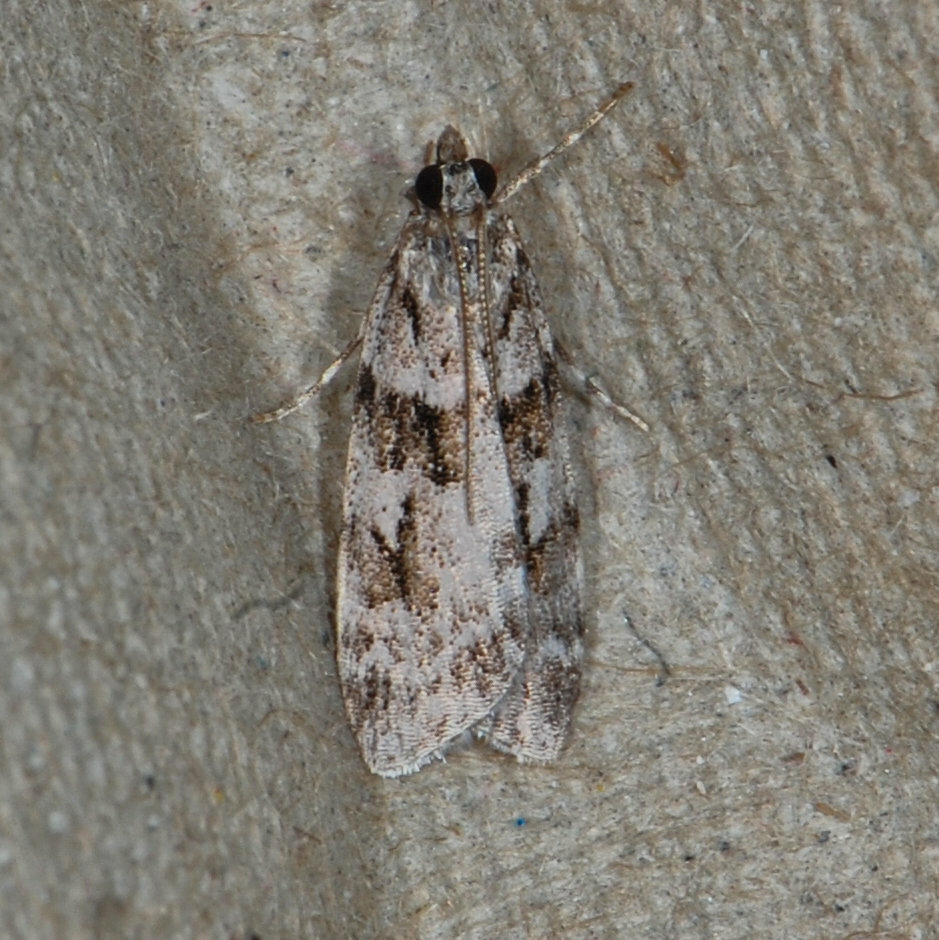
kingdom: Animalia
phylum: Arthropoda
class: Insecta
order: Lepidoptera
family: Crambidae
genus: Scoparia
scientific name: Scoparia biplagialis
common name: Double-striped scoparia moth
